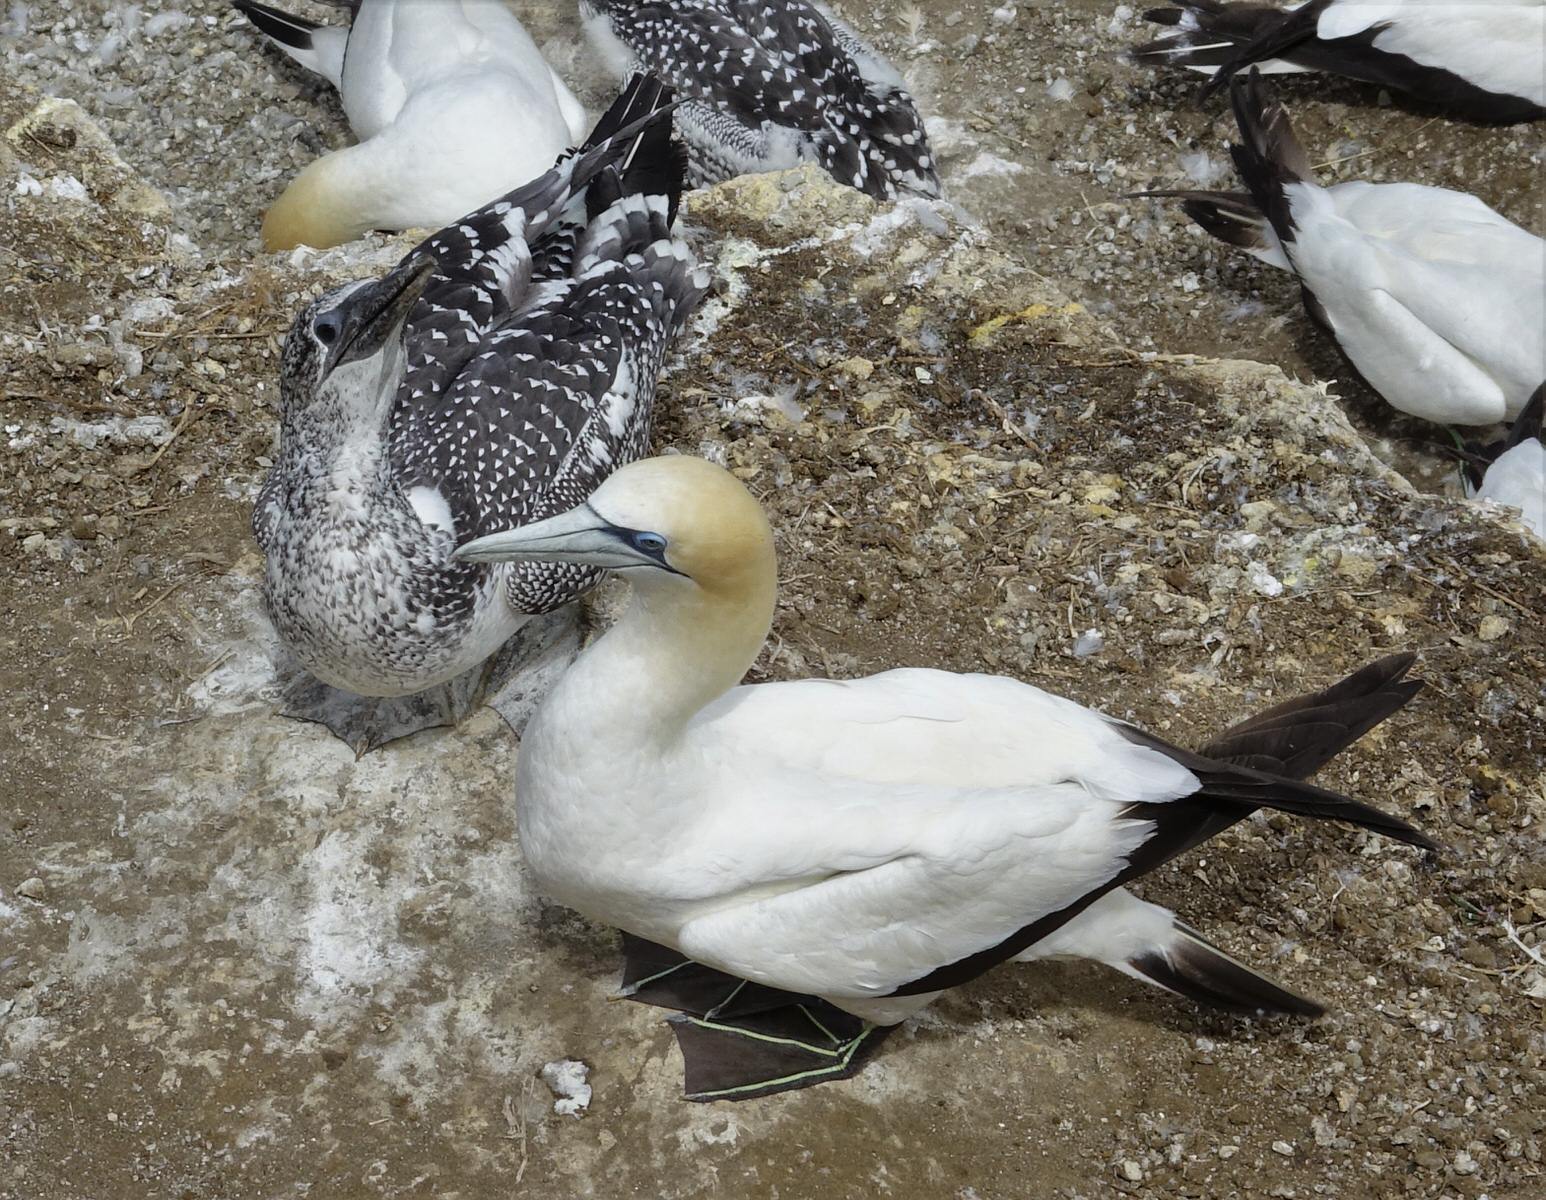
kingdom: Animalia
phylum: Chordata
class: Aves
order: Suliformes
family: Sulidae
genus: Morus
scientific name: Morus serrator
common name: Australasian gannet
